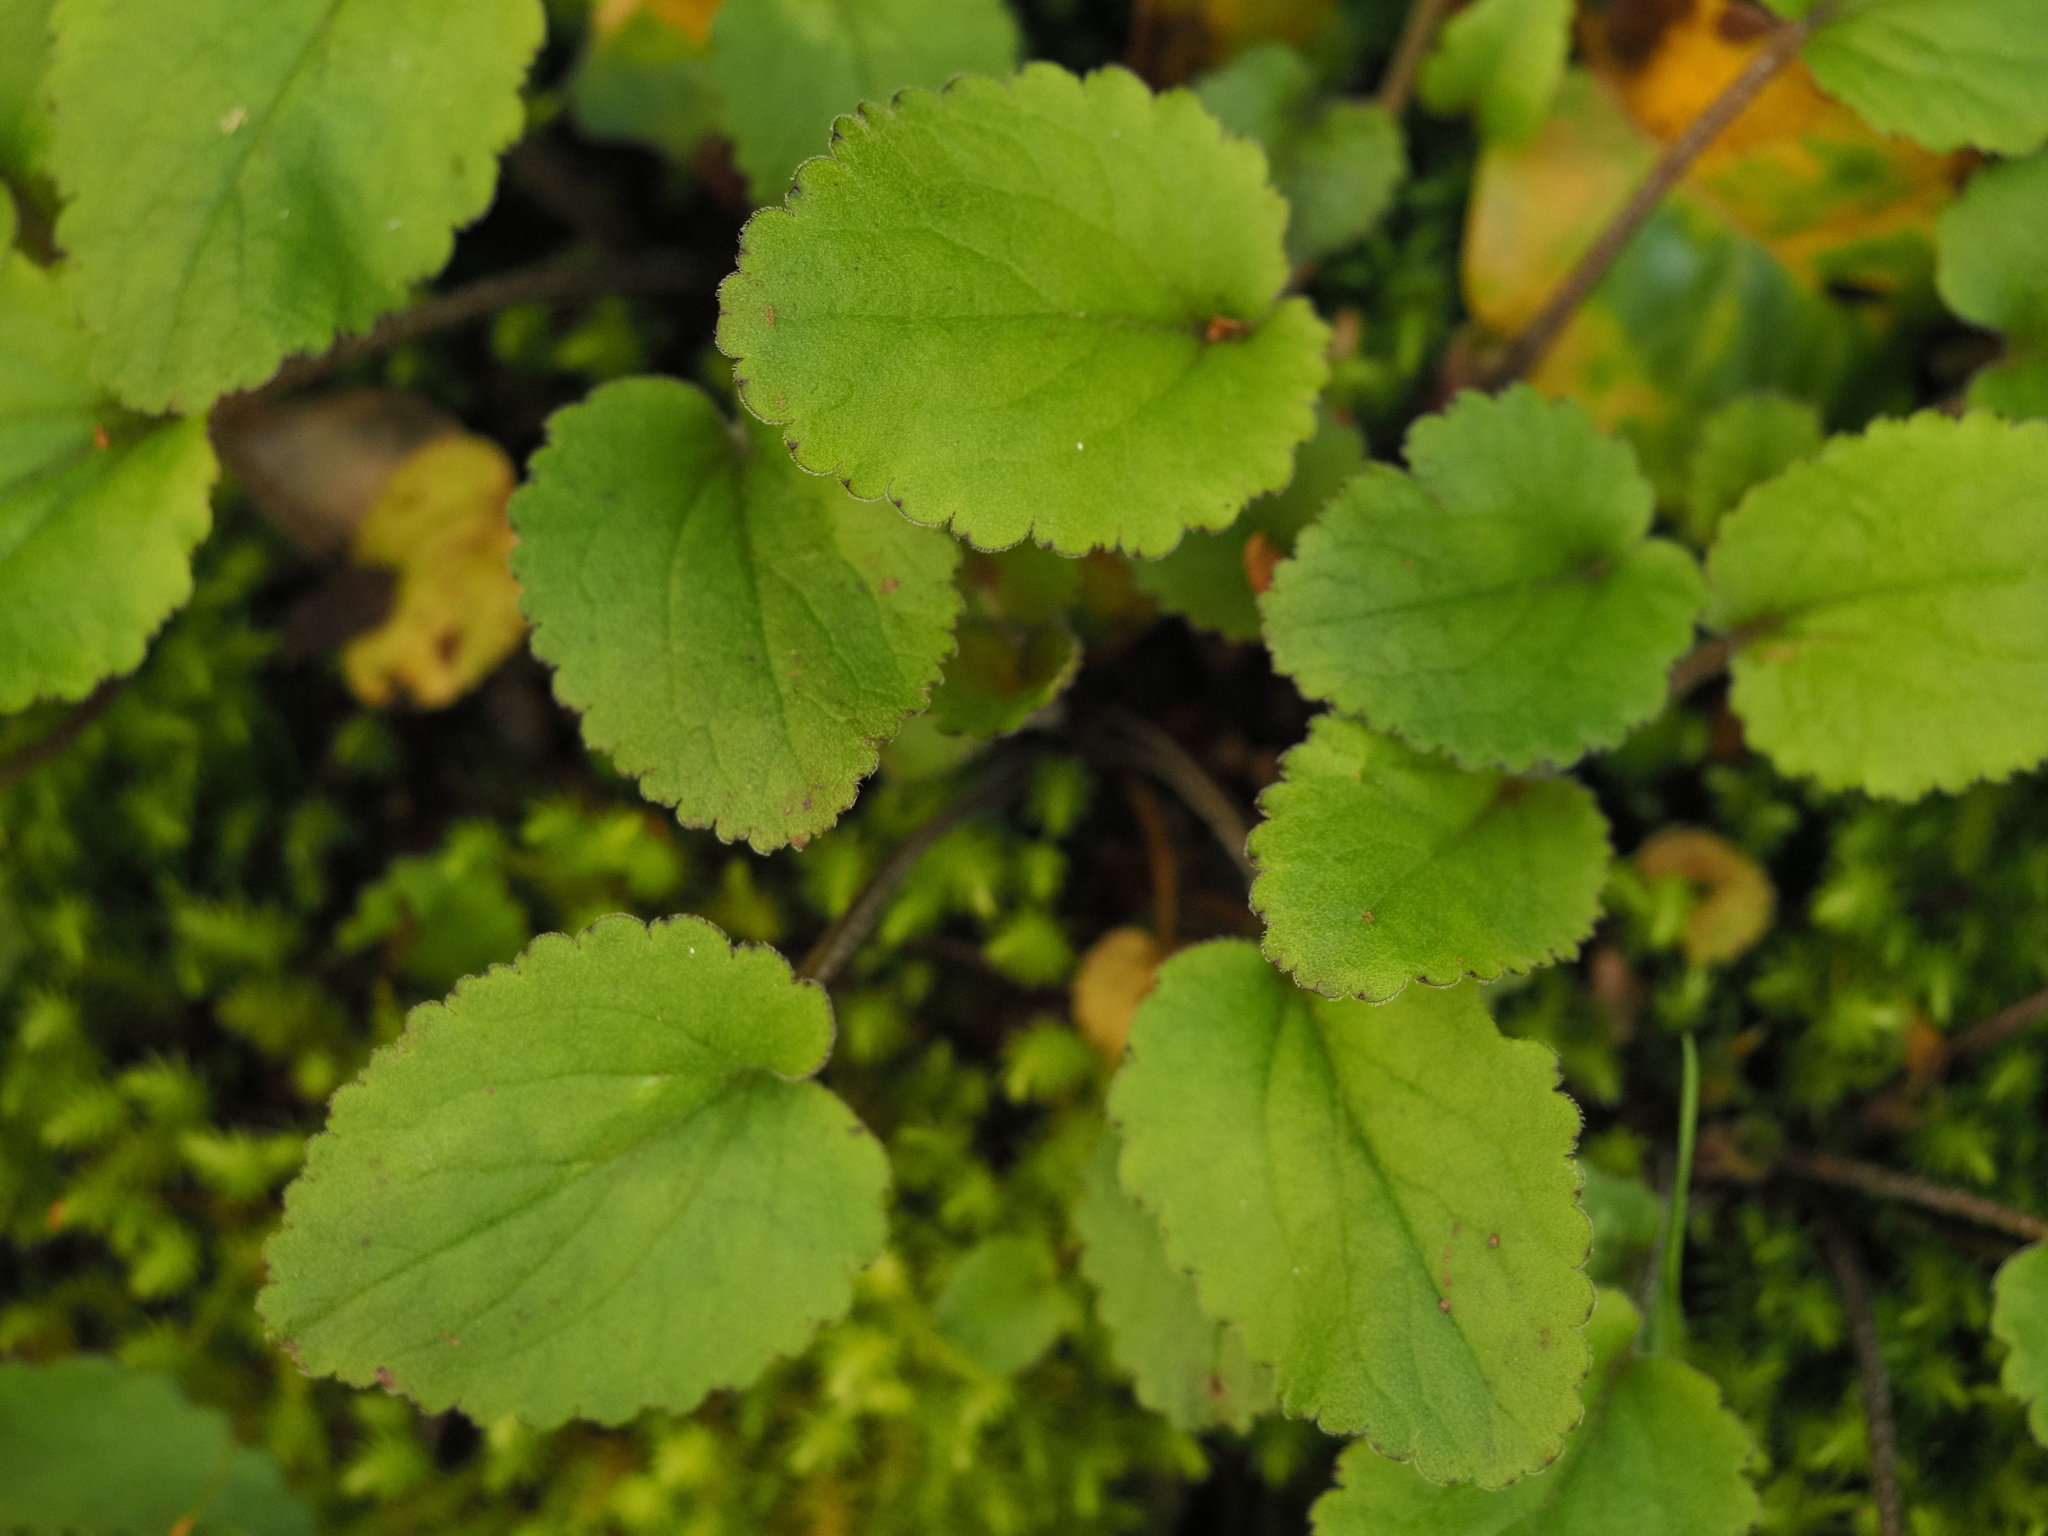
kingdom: Plantae
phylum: Tracheophyta
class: Magnoliopsida
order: Lamiales
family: Plantaginaceae
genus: Ourisia
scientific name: Ourisia macrophylla
